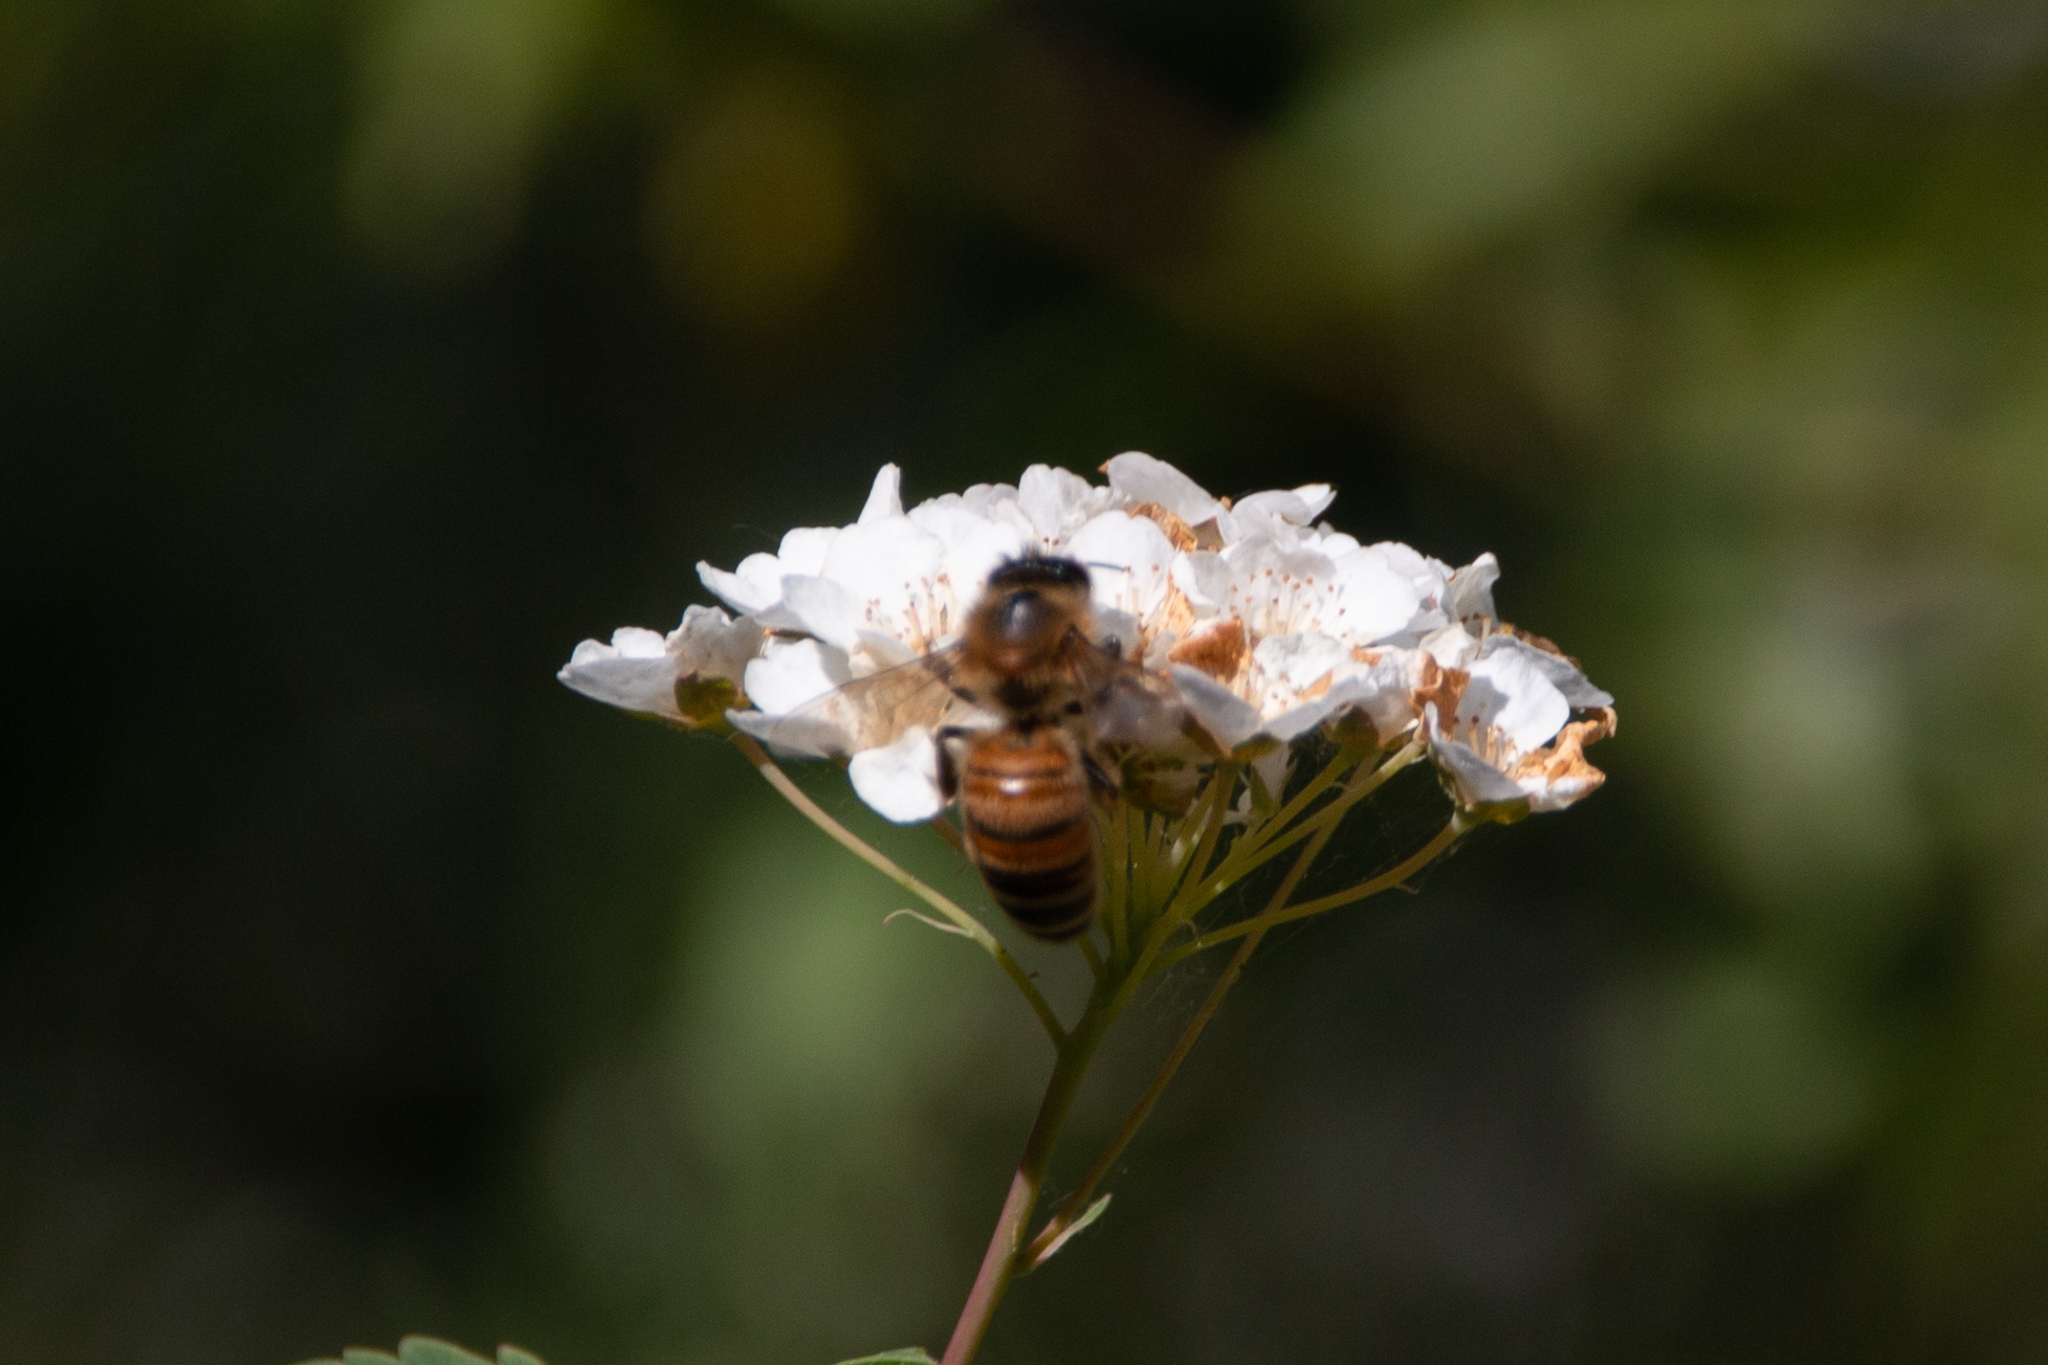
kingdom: Animalia
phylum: Arthropoda
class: Insecta
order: Hymenoptera
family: Apidae
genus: Apis
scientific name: Apis mellifera
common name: Honey bee
